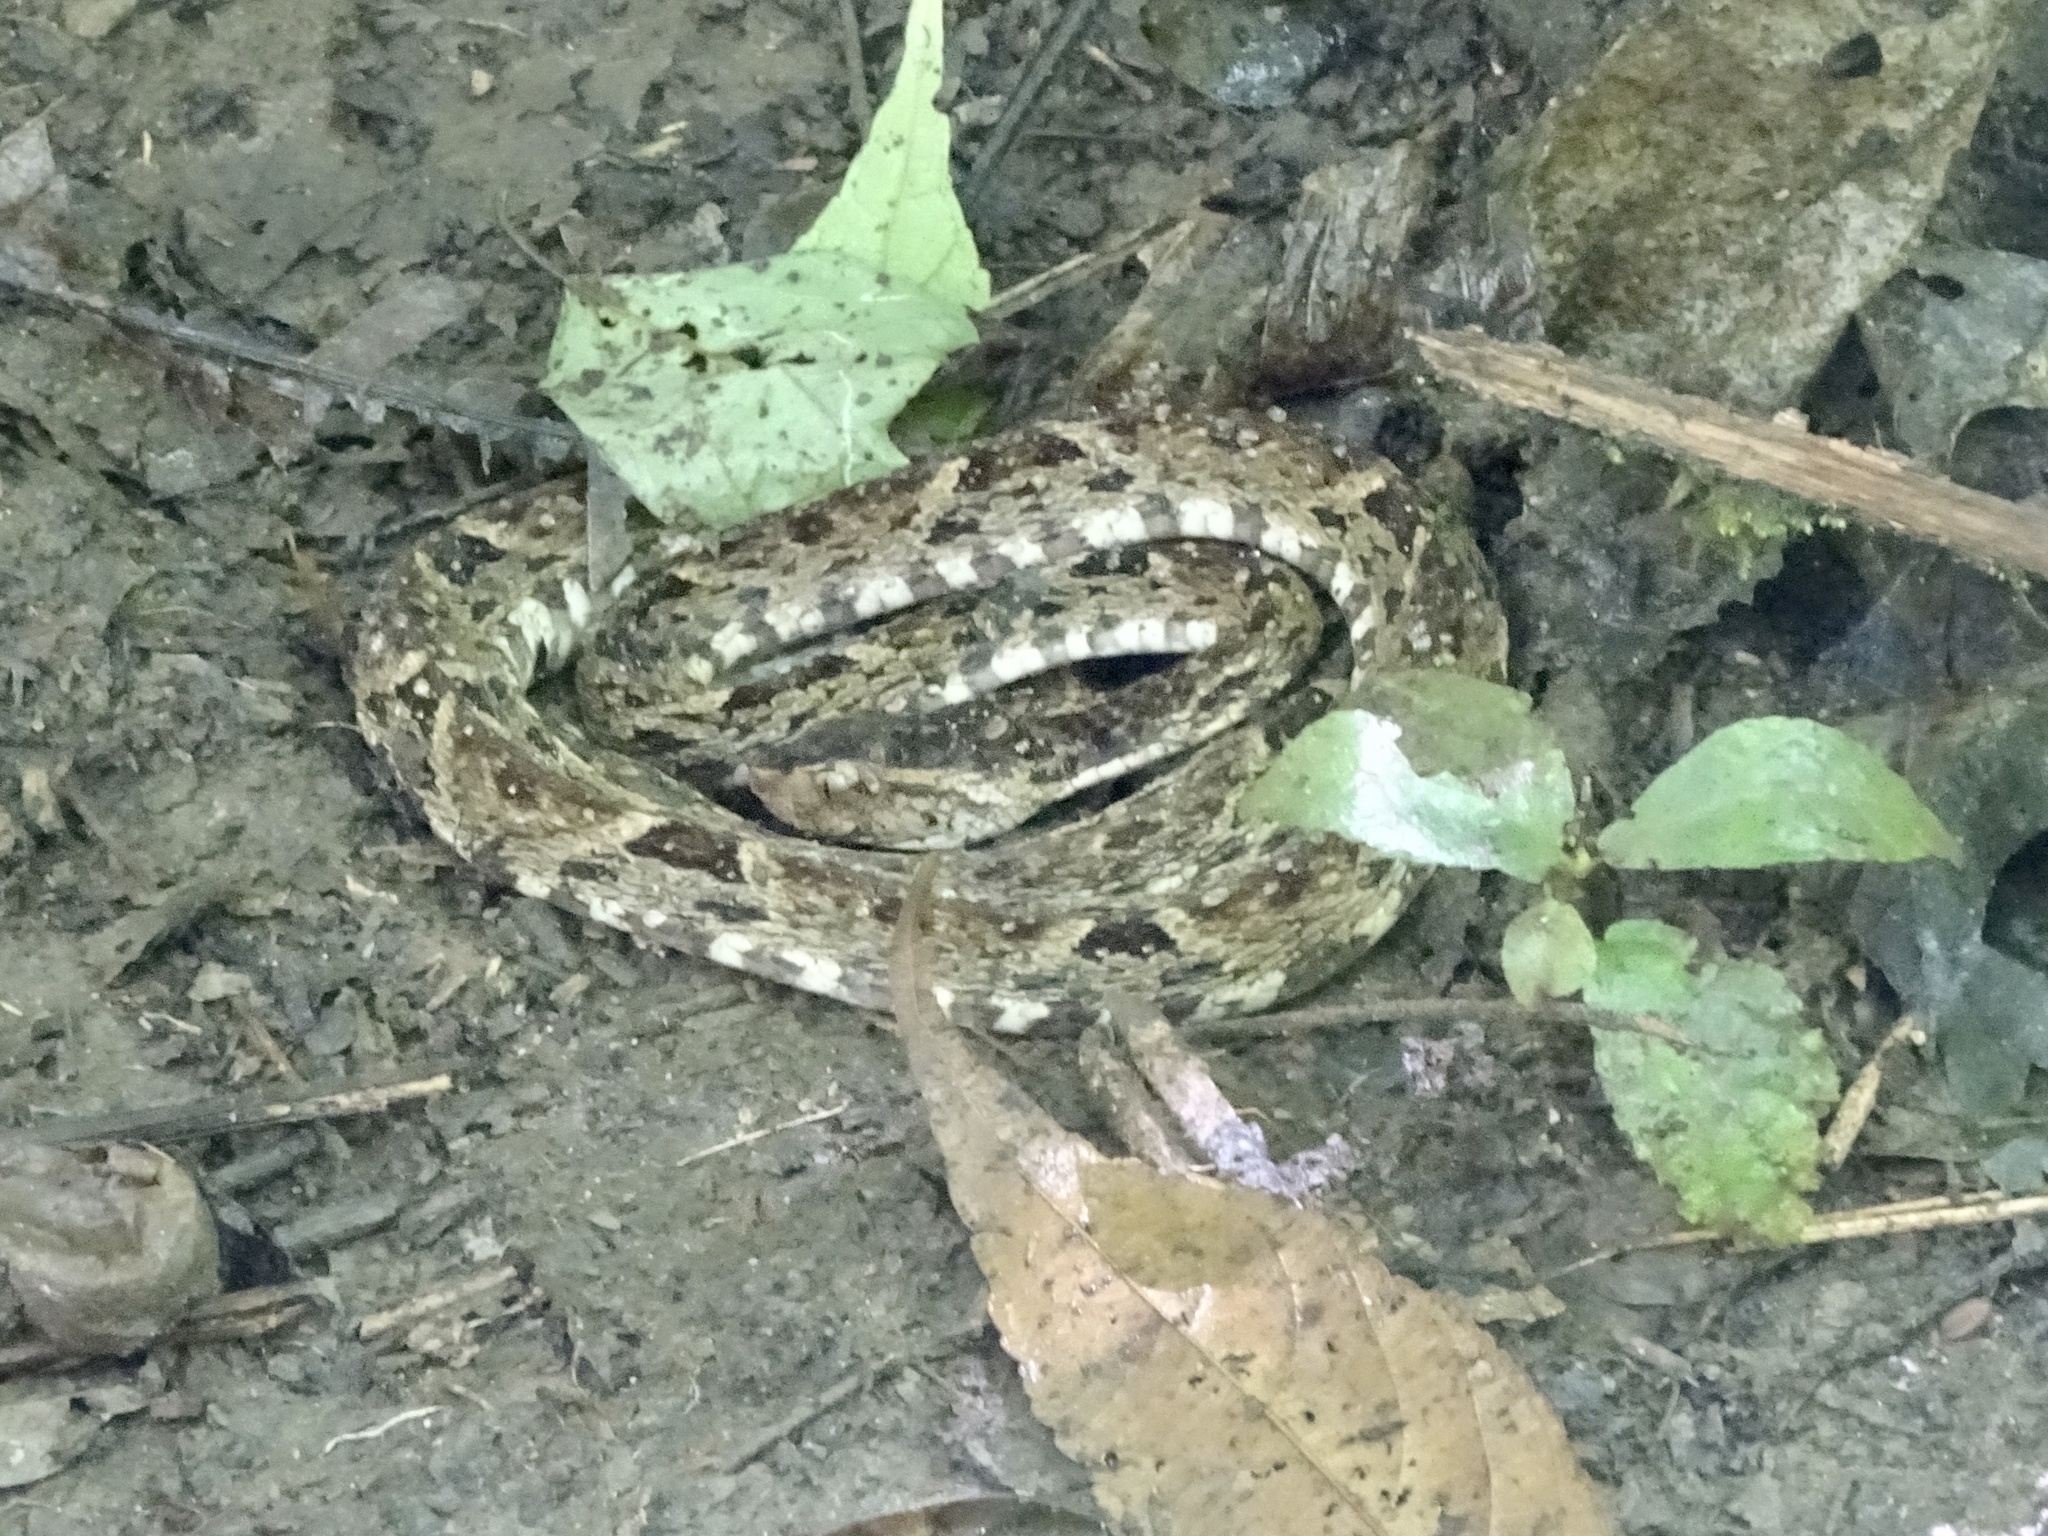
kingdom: Animalia
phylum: Chordata
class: Squamata
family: Viperidae
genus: Bothrops
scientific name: Bothrops asper
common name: Terciopelo
